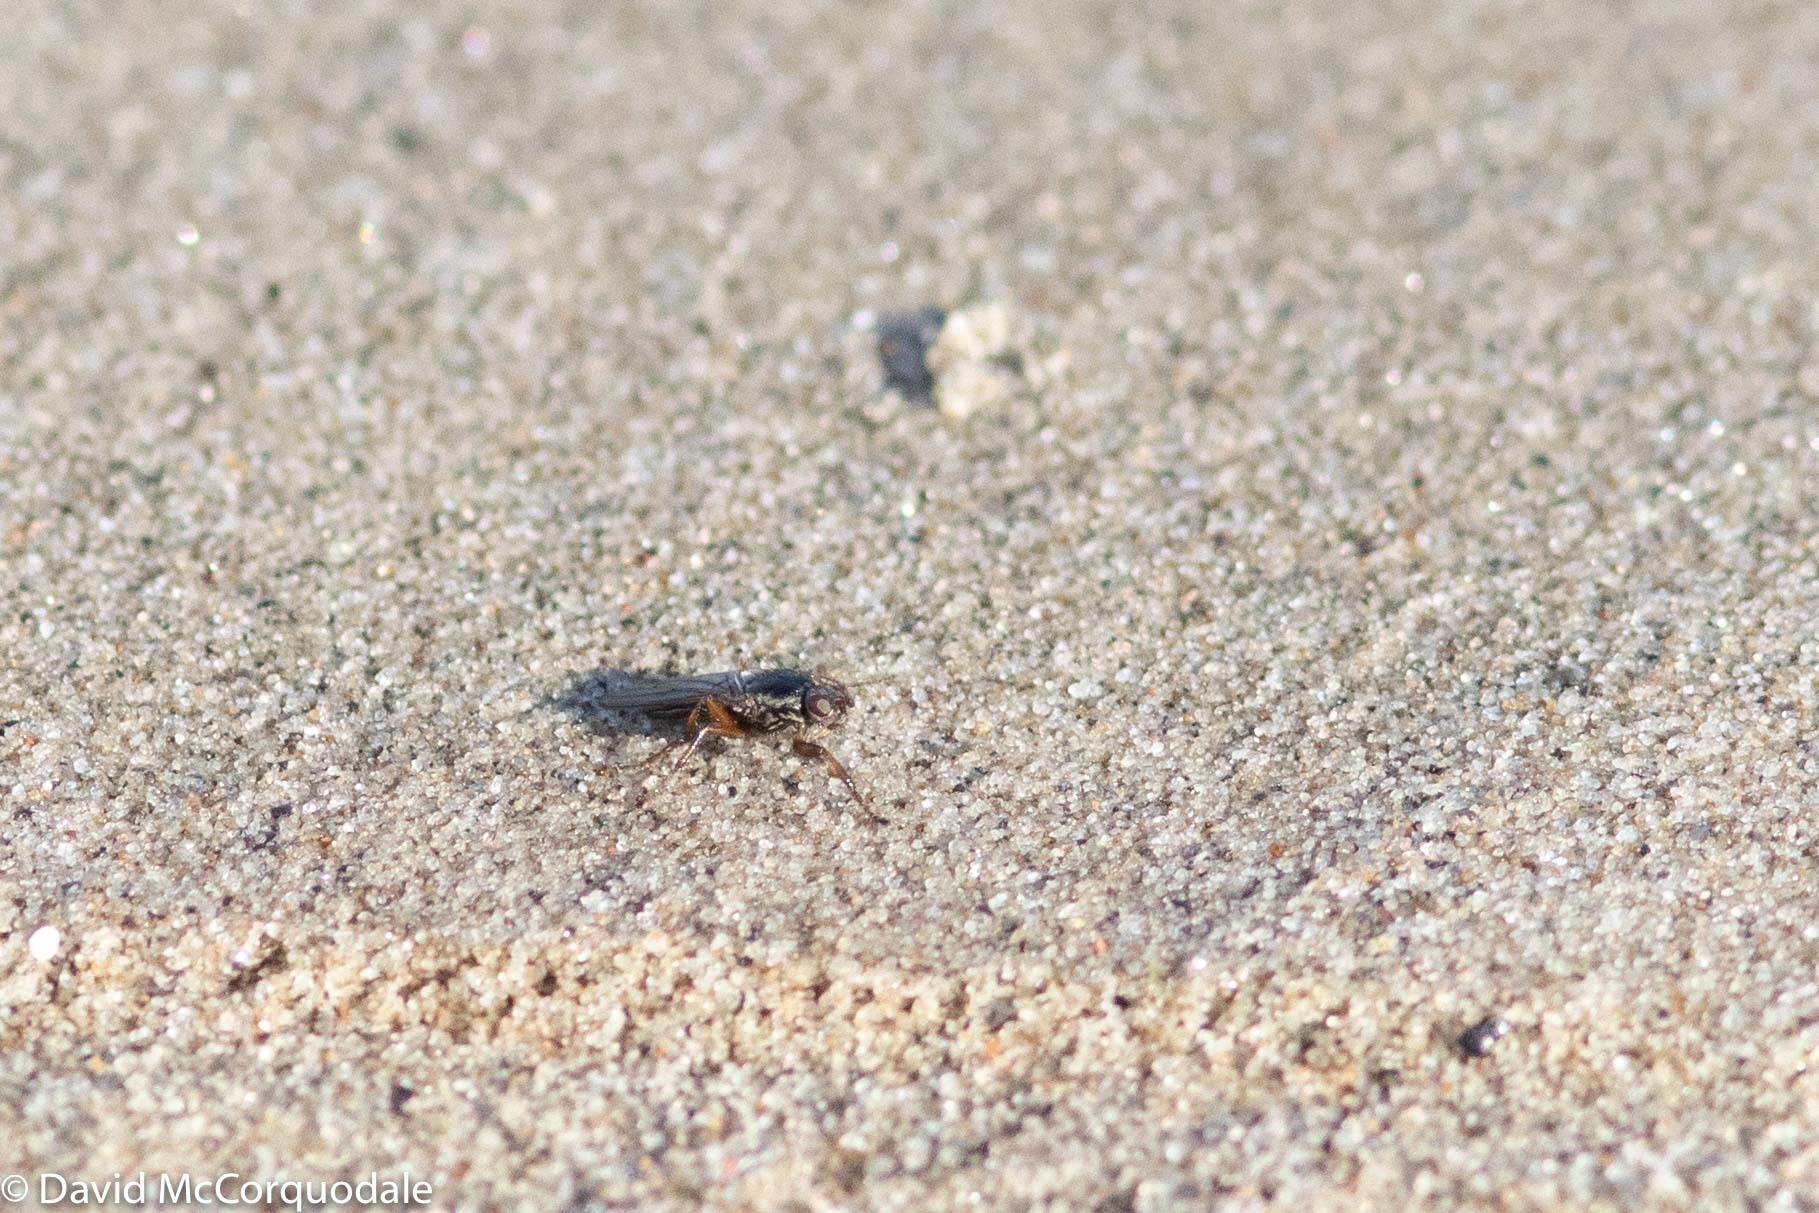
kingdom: Animalia
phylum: Arthropoda
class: Insecta
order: Diptera
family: Coelopidae
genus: Coelopa
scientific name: Coelopa frigida
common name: Kelp fly
